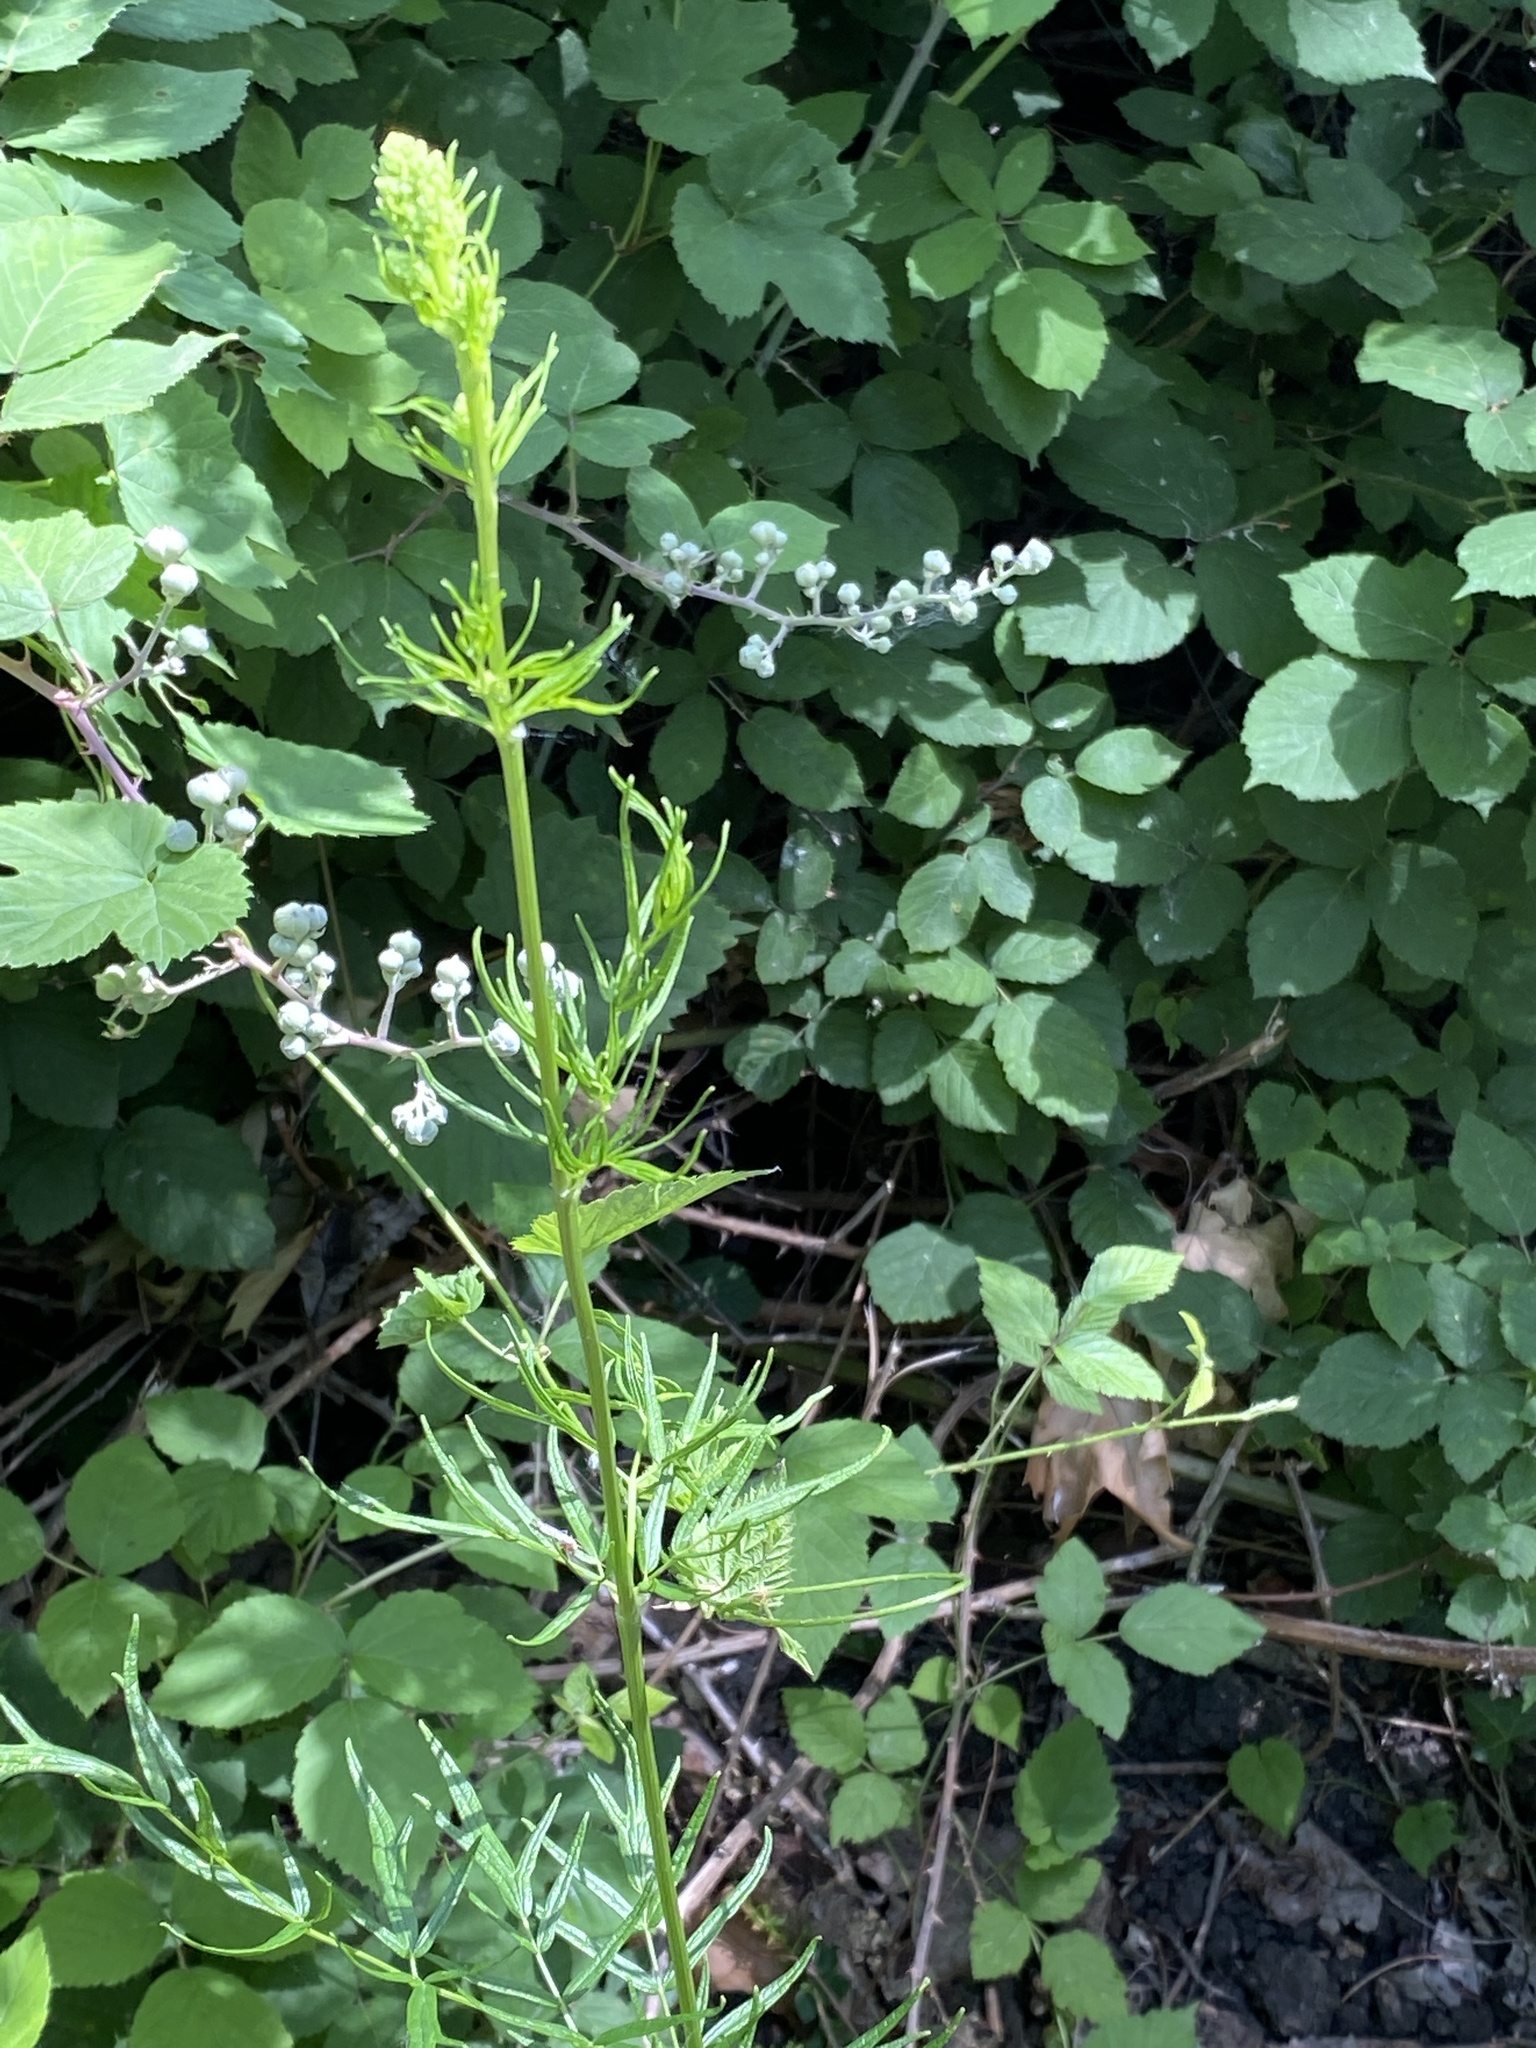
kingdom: Plantae
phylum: Tracheophyta
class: Magnoliopsida
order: Ranunculales
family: Ranunculaceae
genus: Thalictrum
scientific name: Thalictrum lucidum
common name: Shining meadow-rue
